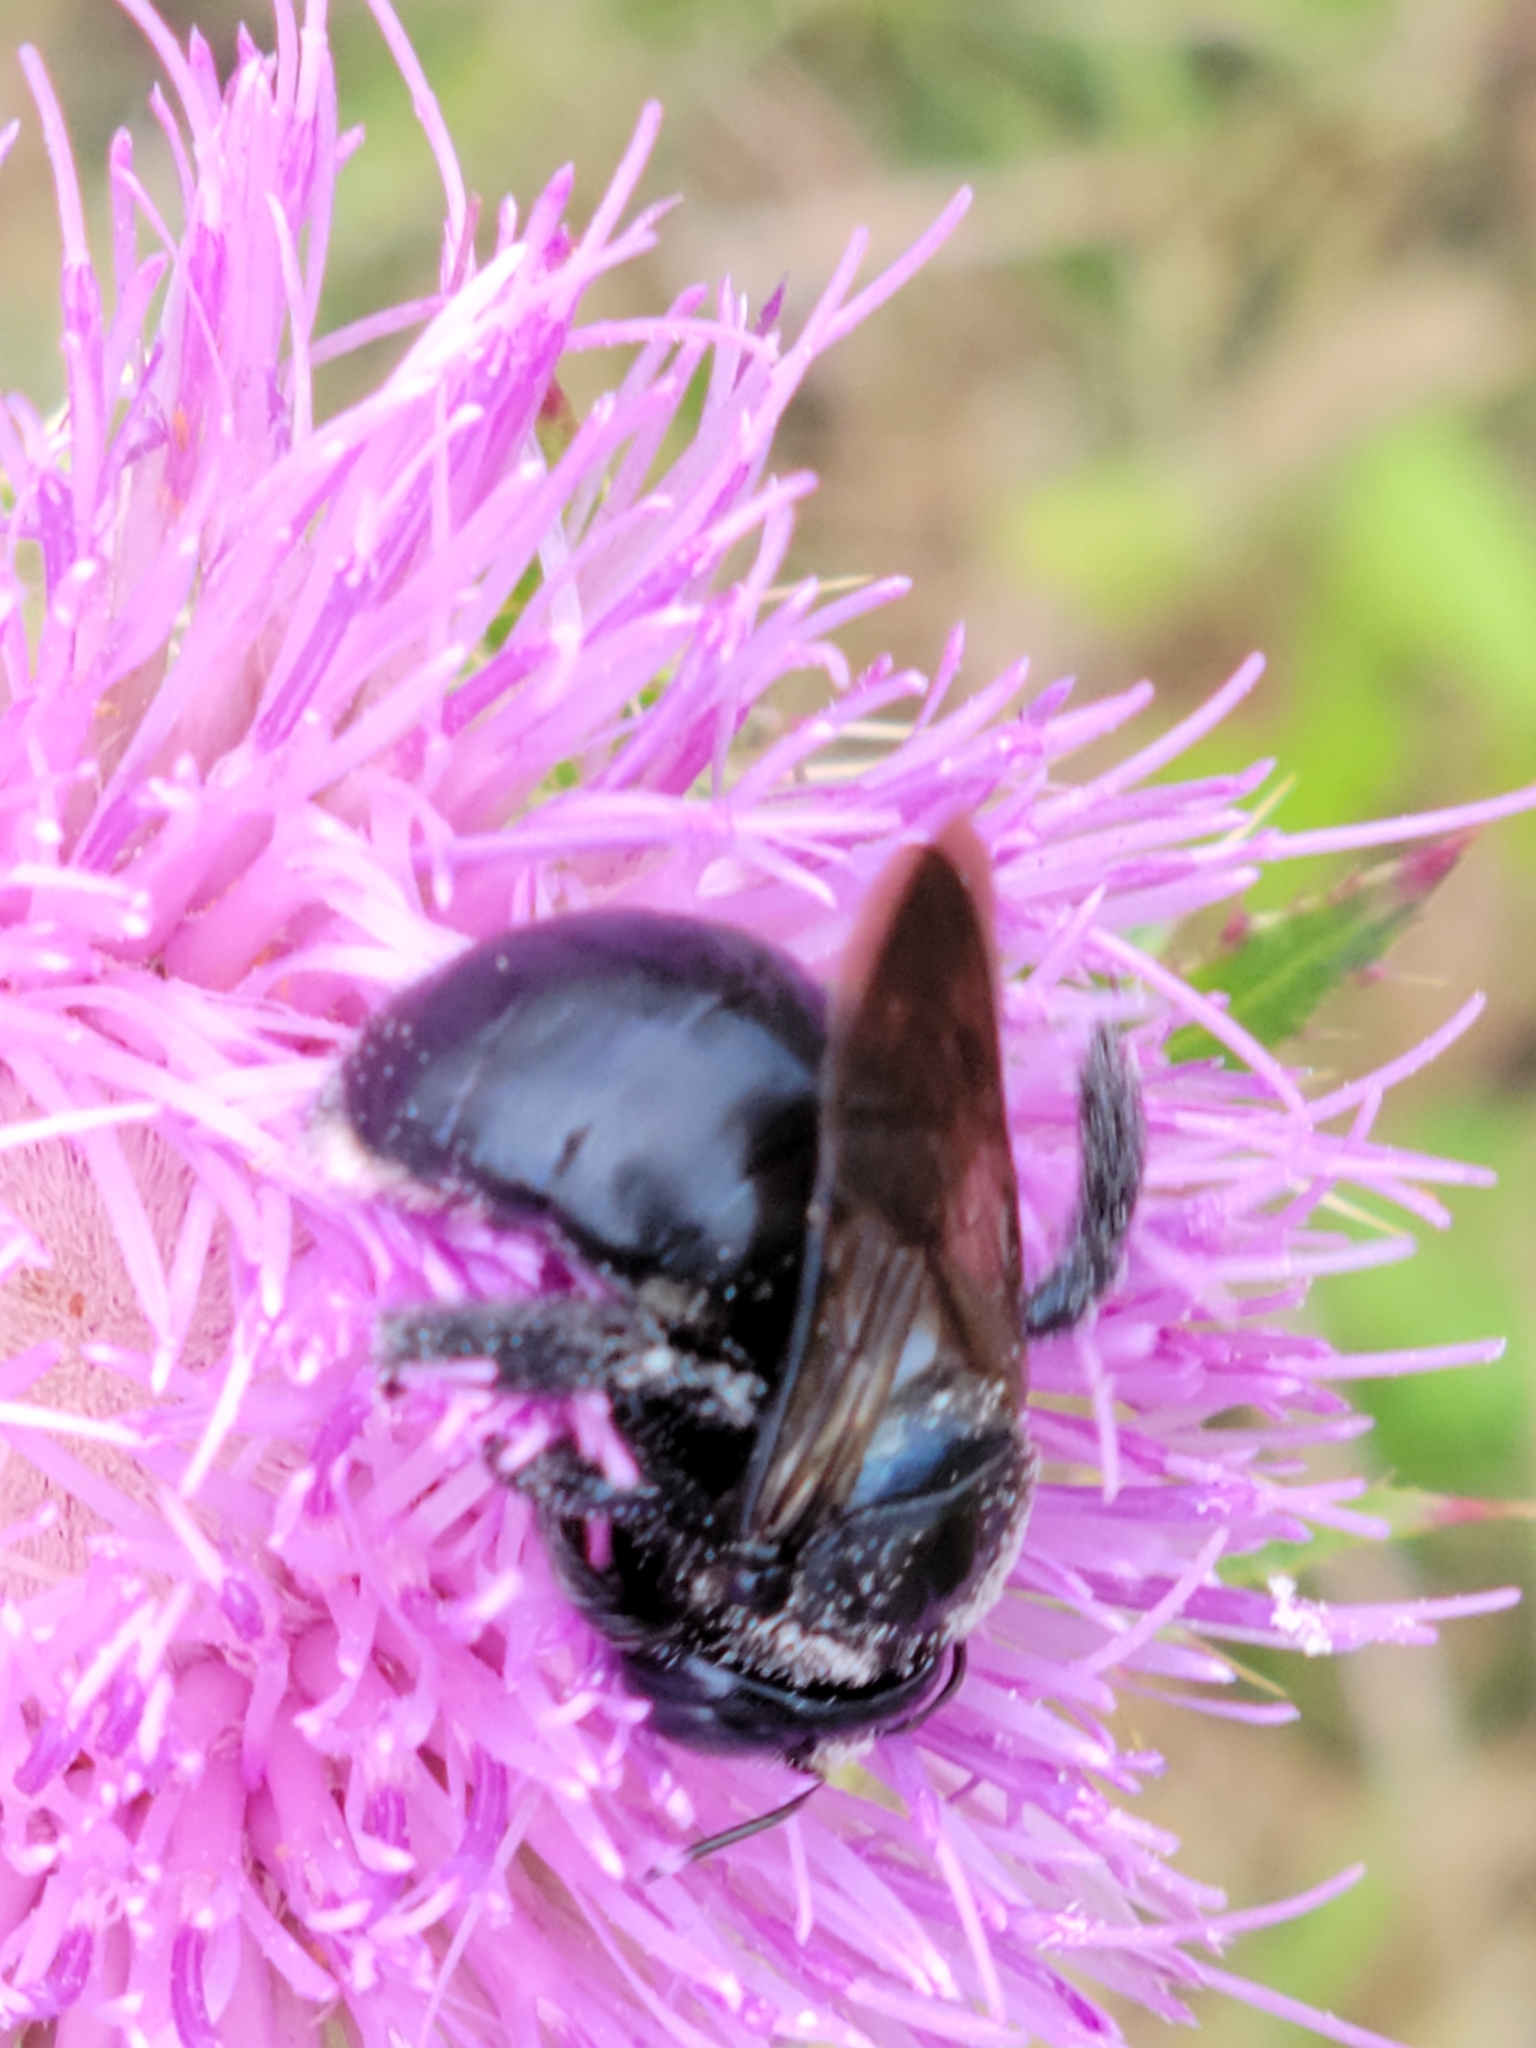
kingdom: Animalia
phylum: Arthropoda
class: Insecta
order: Hymenoptera
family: Apidae
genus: Xylocopa
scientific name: Xylocopa micans
